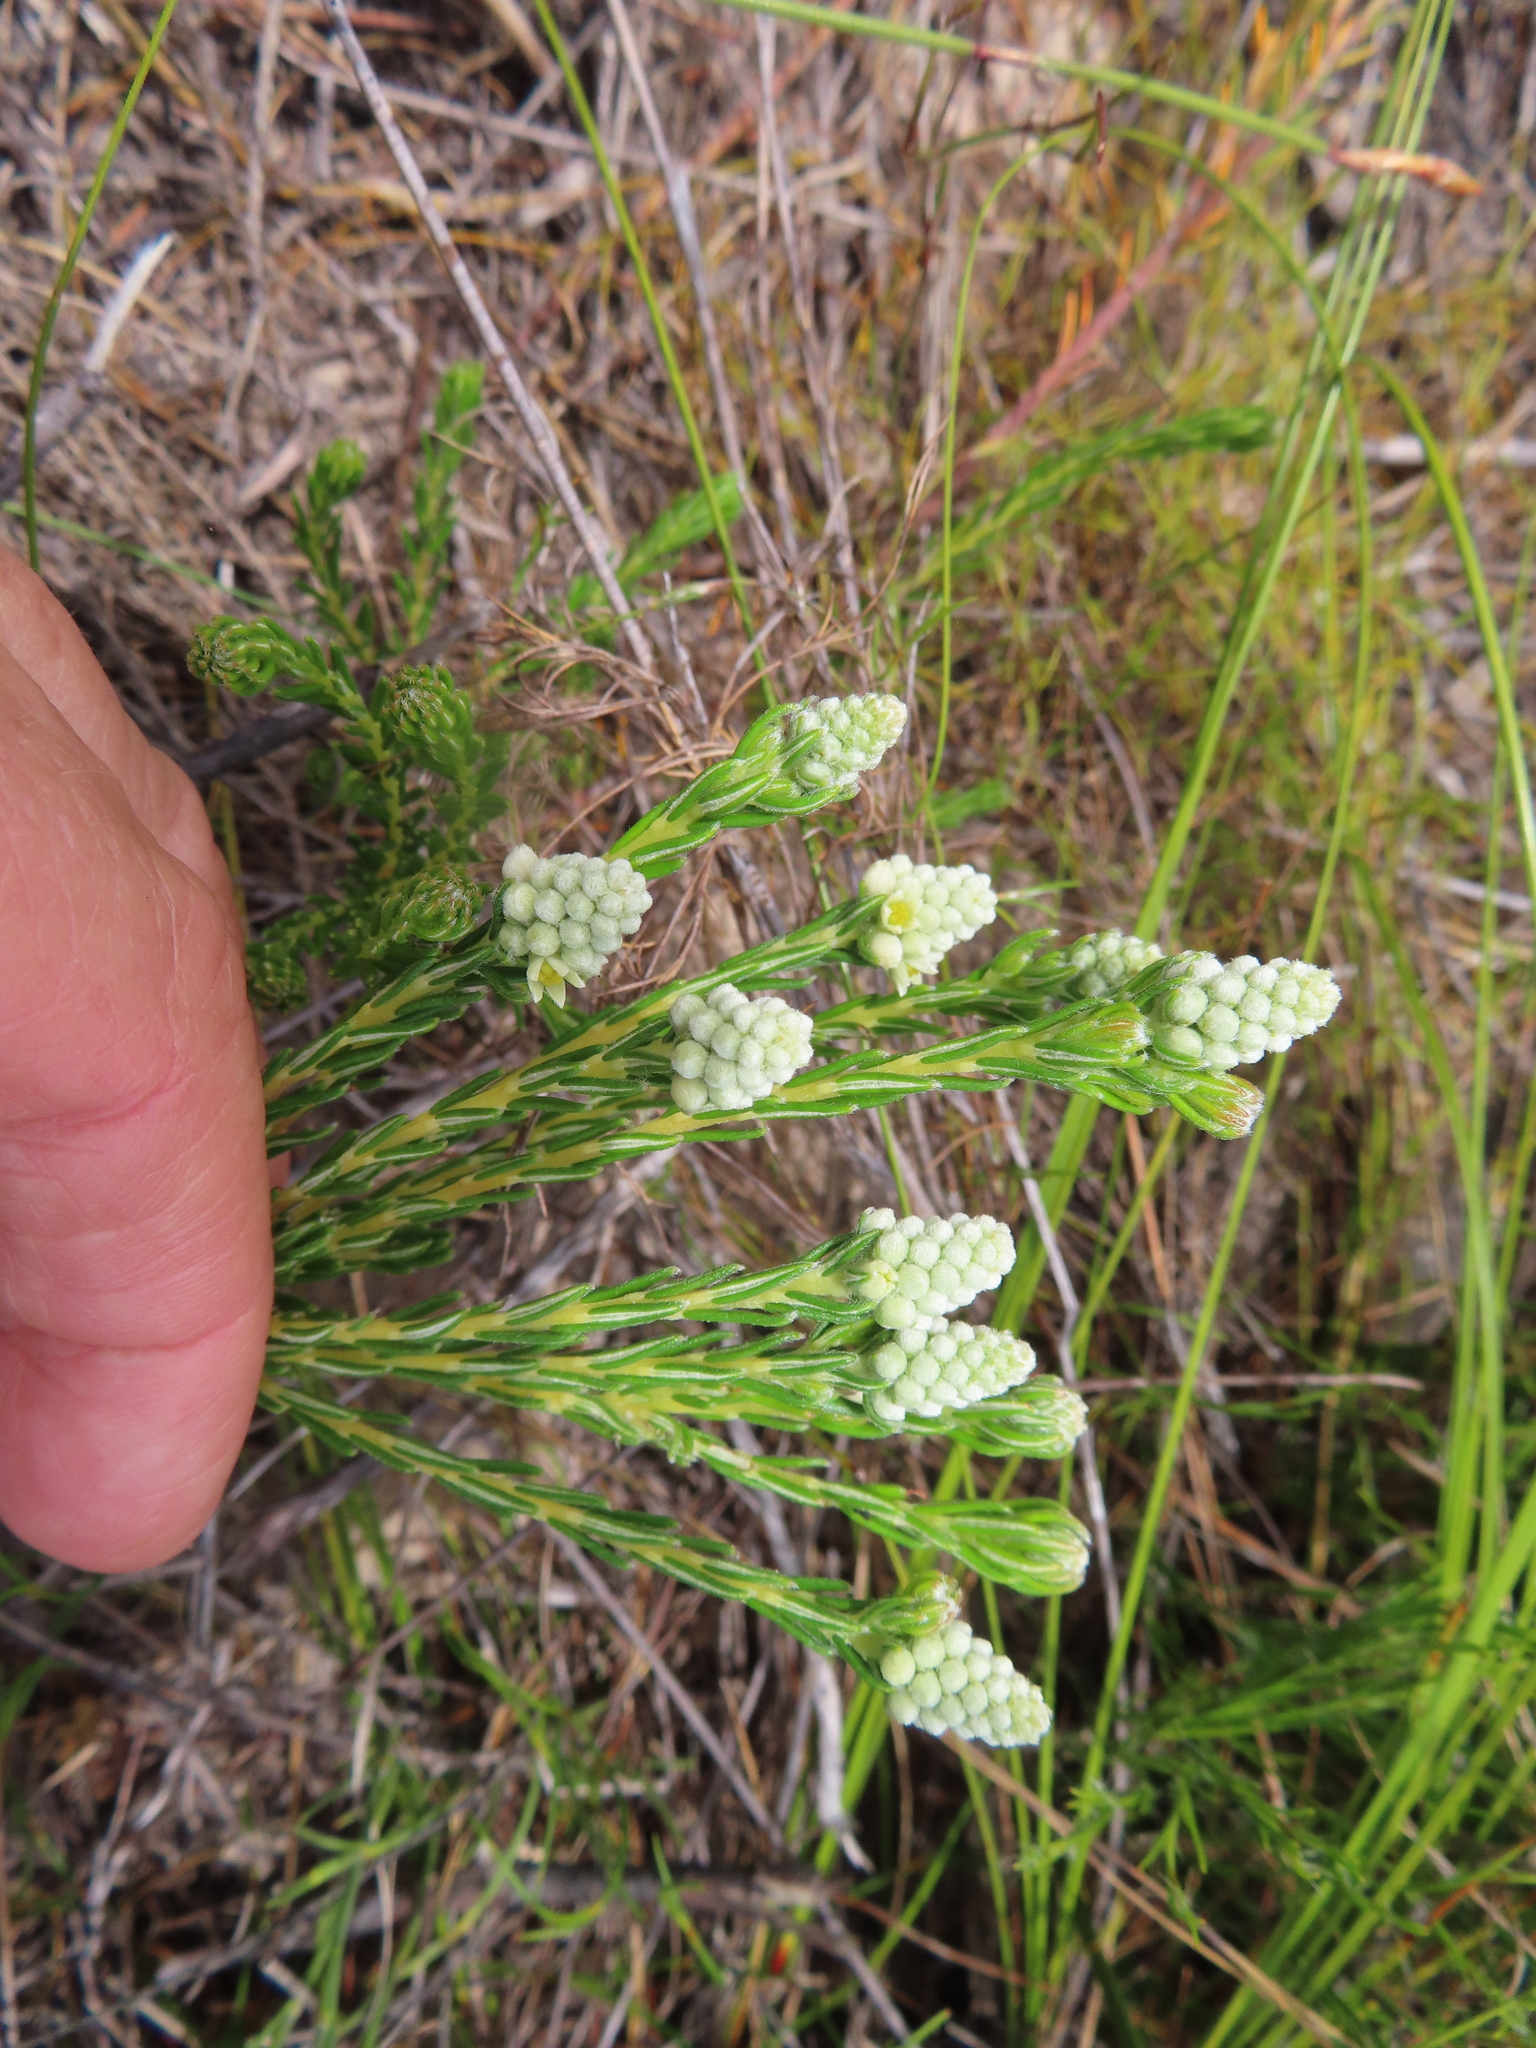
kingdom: Plantae
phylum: Tracheophyta
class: Magnoliopsida
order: Rosales
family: Rhamnaceae
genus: Phylica
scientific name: Phylica imberbis
